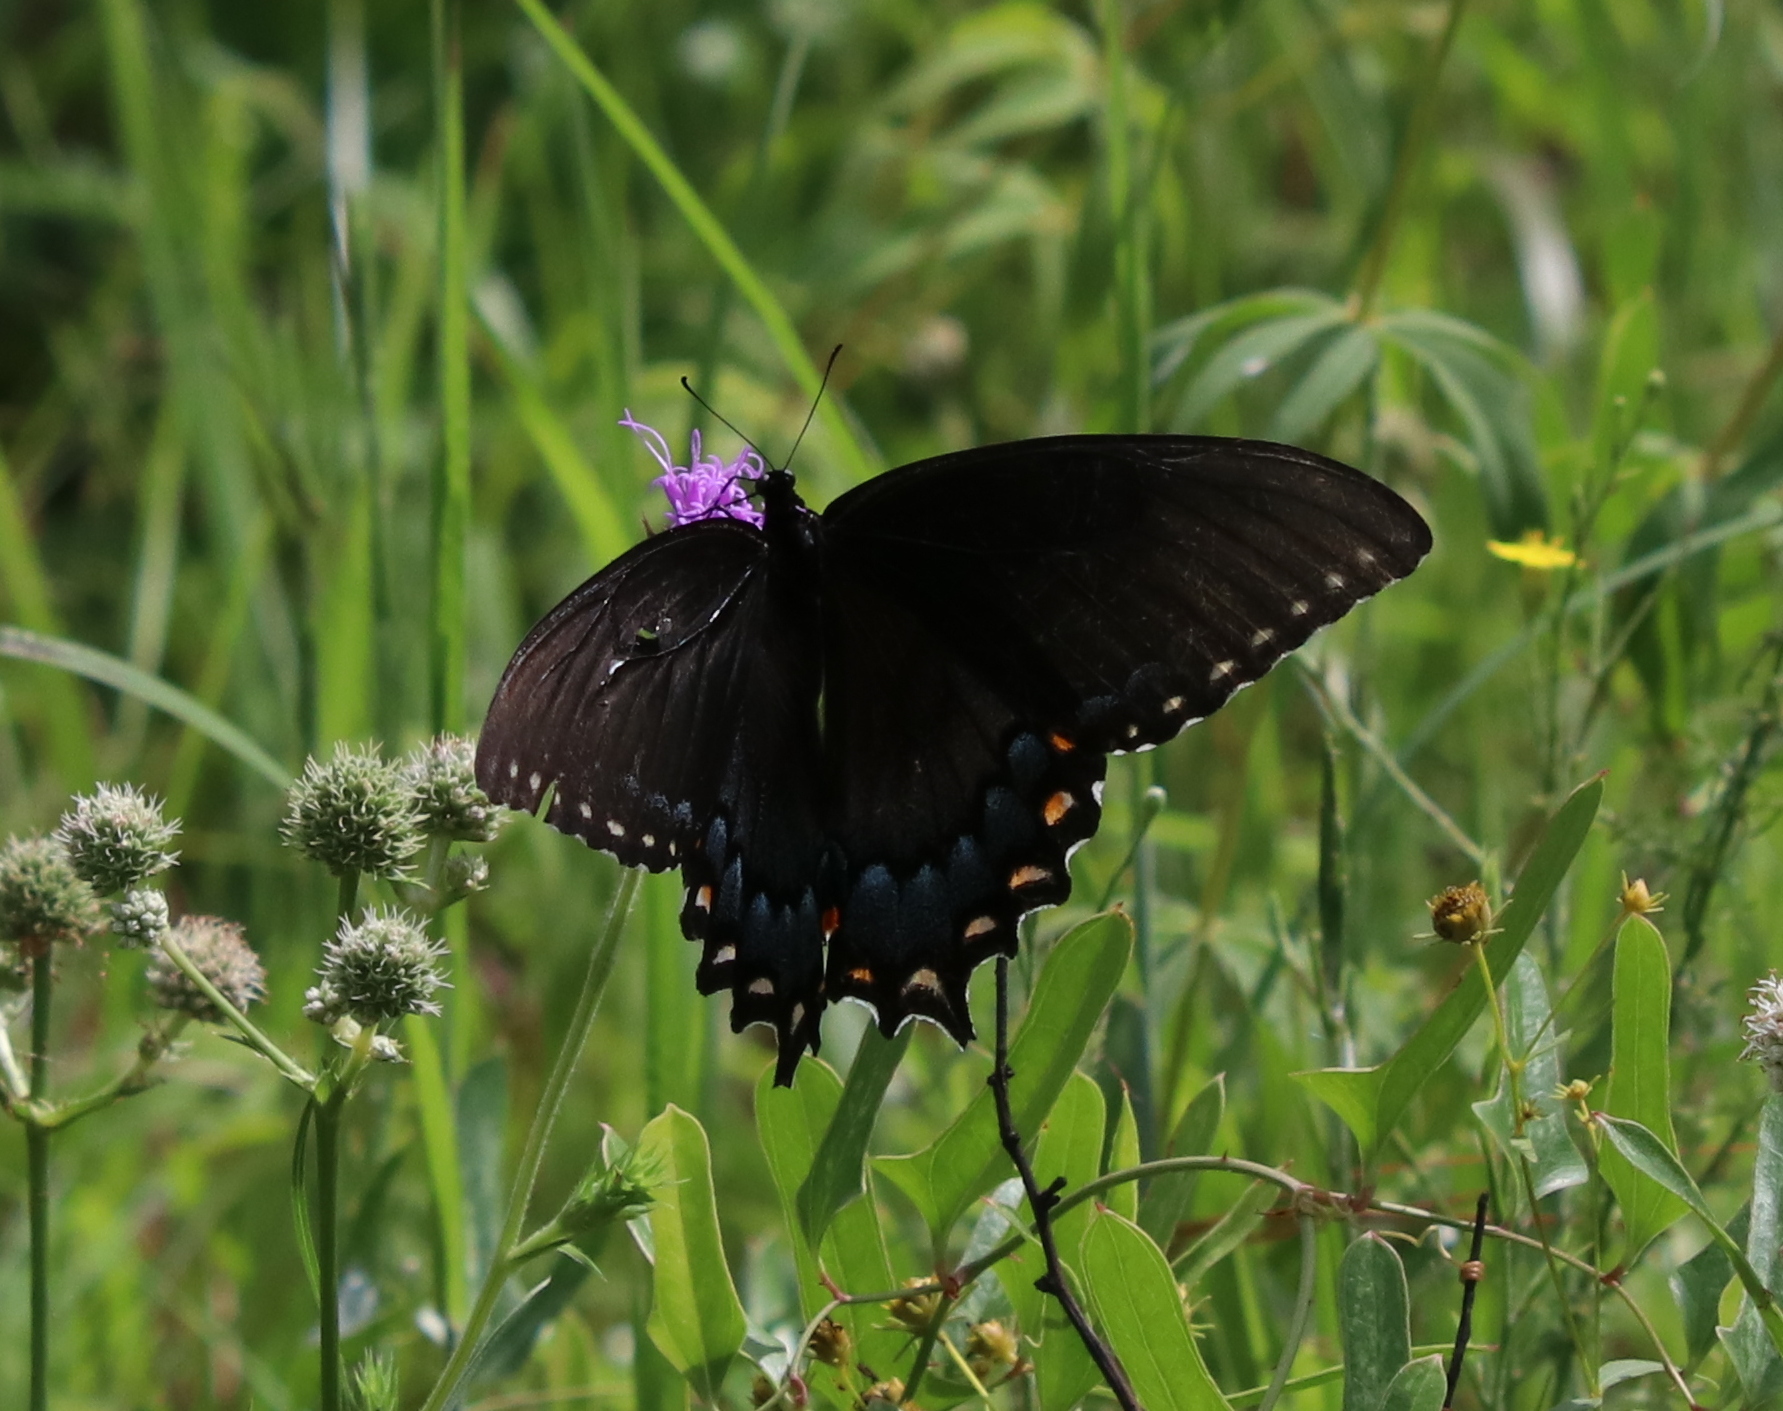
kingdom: Animalia
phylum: Arthropoda
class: Insecta
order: Lepidoptera
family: Papilionidae
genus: Papilio
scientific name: Papilio glaucus
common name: Tiger swallowtail
